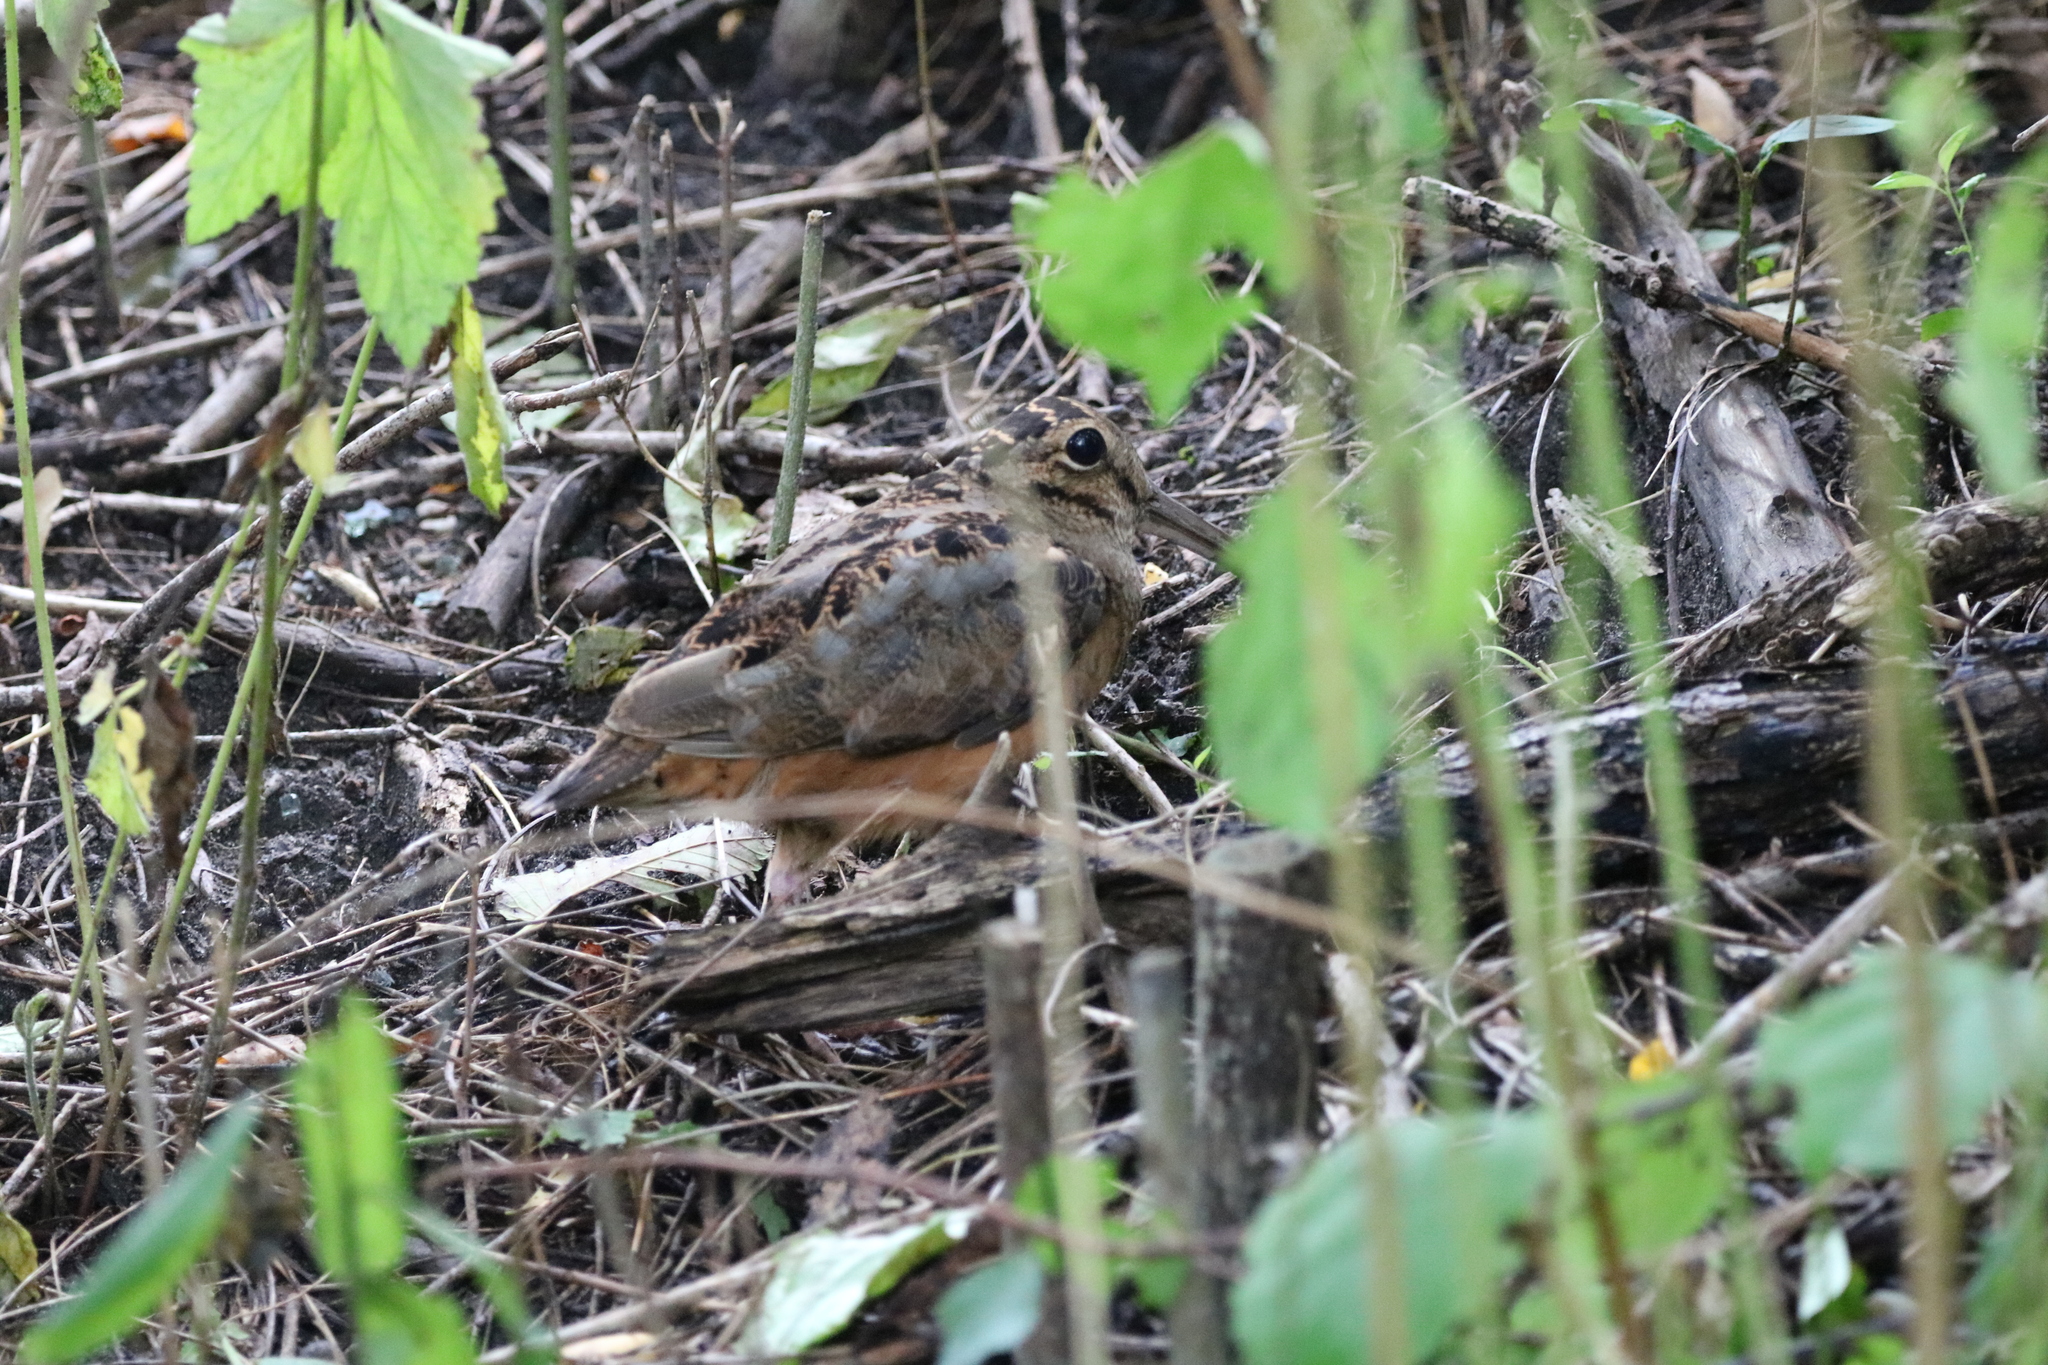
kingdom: Animalia
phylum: Chordata
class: Aves
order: Charadriiformes
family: Scolopacidae
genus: Scolopax
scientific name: Scolopax minor
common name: American woodcock
